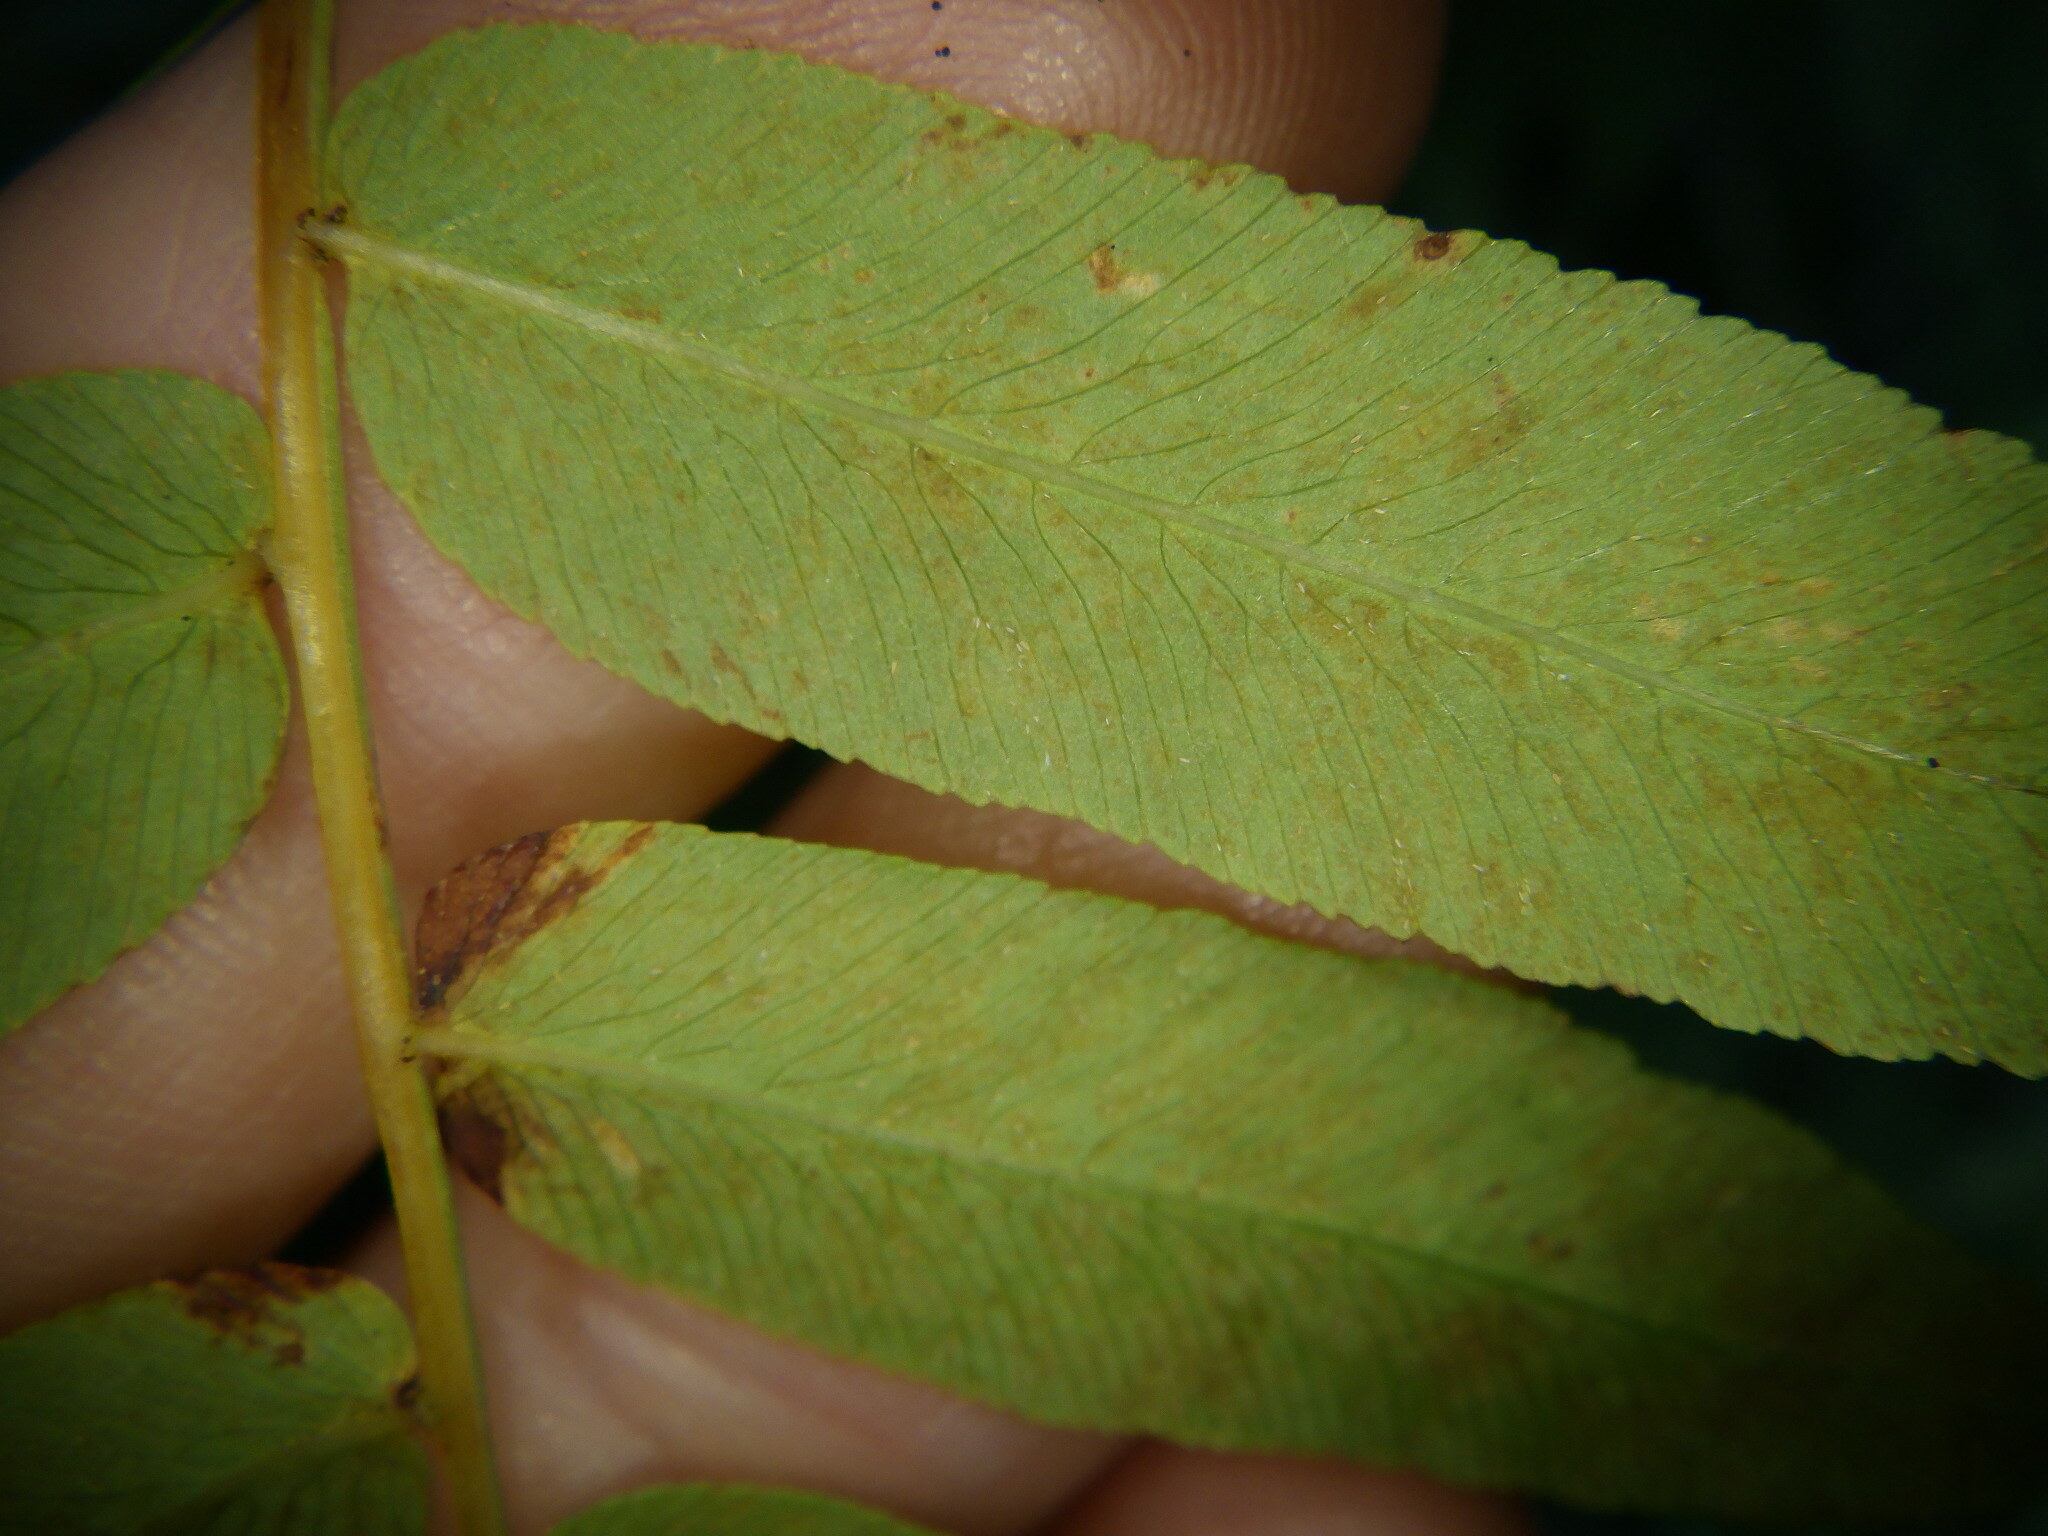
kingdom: Plantae
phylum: Tracheophyta
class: Polypodiopsida
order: Osmundales
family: Osmundaceae
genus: Osmunda
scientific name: Osmunda spectabilis
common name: American royal fern
